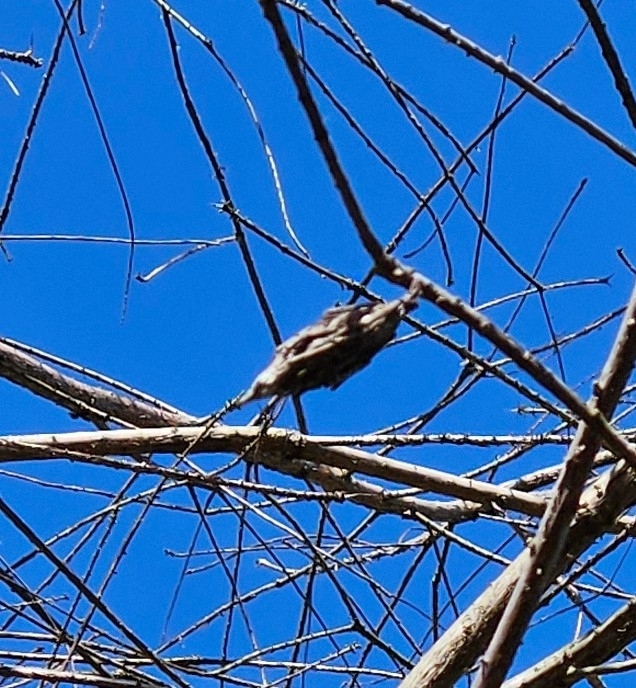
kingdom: Animalia
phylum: Arthropoda
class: Insecta
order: Lepidoptera
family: Psychidae
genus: Thyridopteryx
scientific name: Thyridopteryx ephemeraeformis
